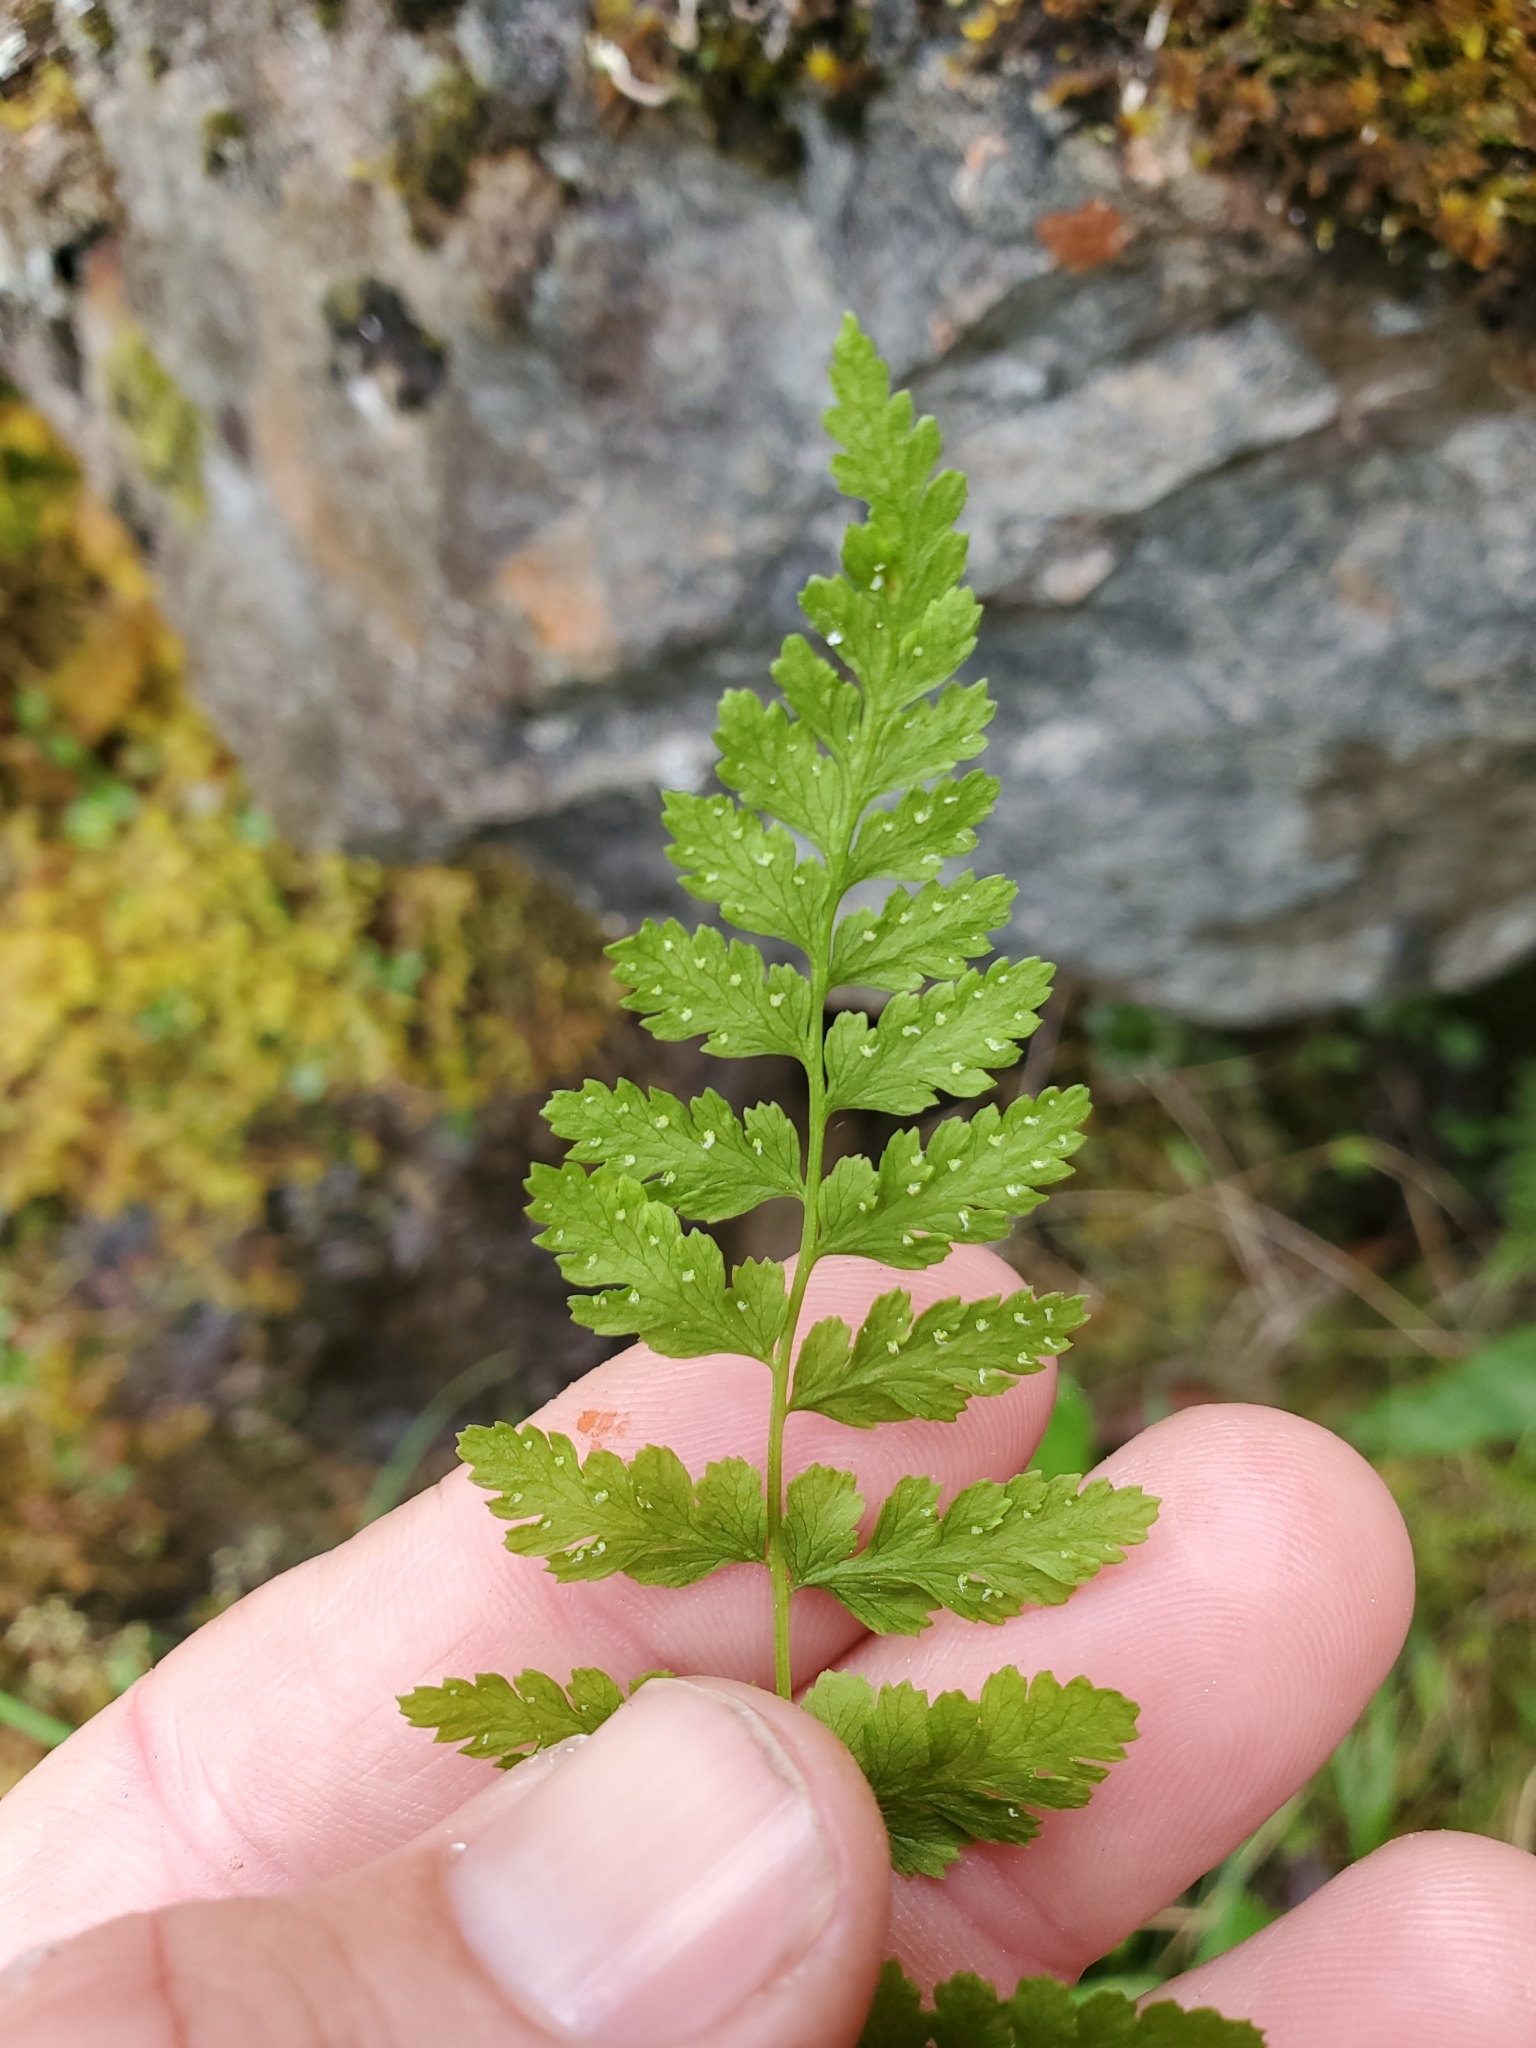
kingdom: Plantae
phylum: Tracheophyta
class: Polypodiopsida
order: Polypodiales
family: Cystopteridaceae
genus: Cystopteris
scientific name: Cystopteris fragilis
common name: Brittle bladder fern
